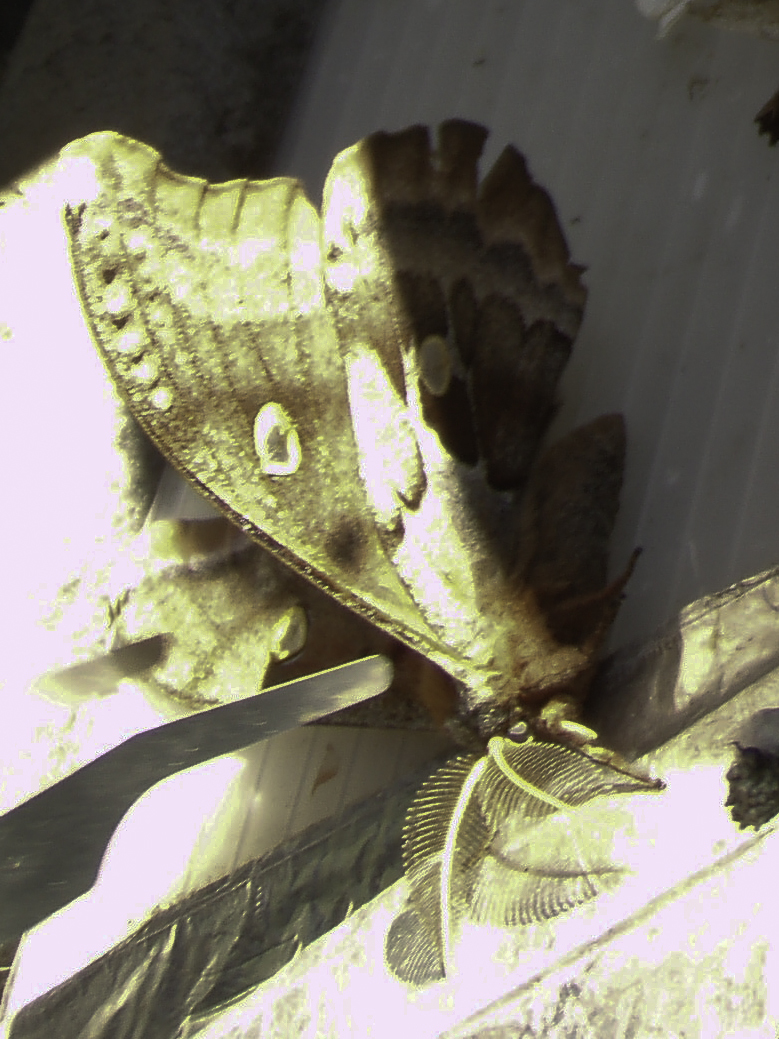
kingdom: Animalia
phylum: Arthropoda
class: Insecta
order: Lepidoptera
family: Saturniidae
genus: Antheraea
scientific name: Antheraea polyphemus
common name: Polyphemus moth
